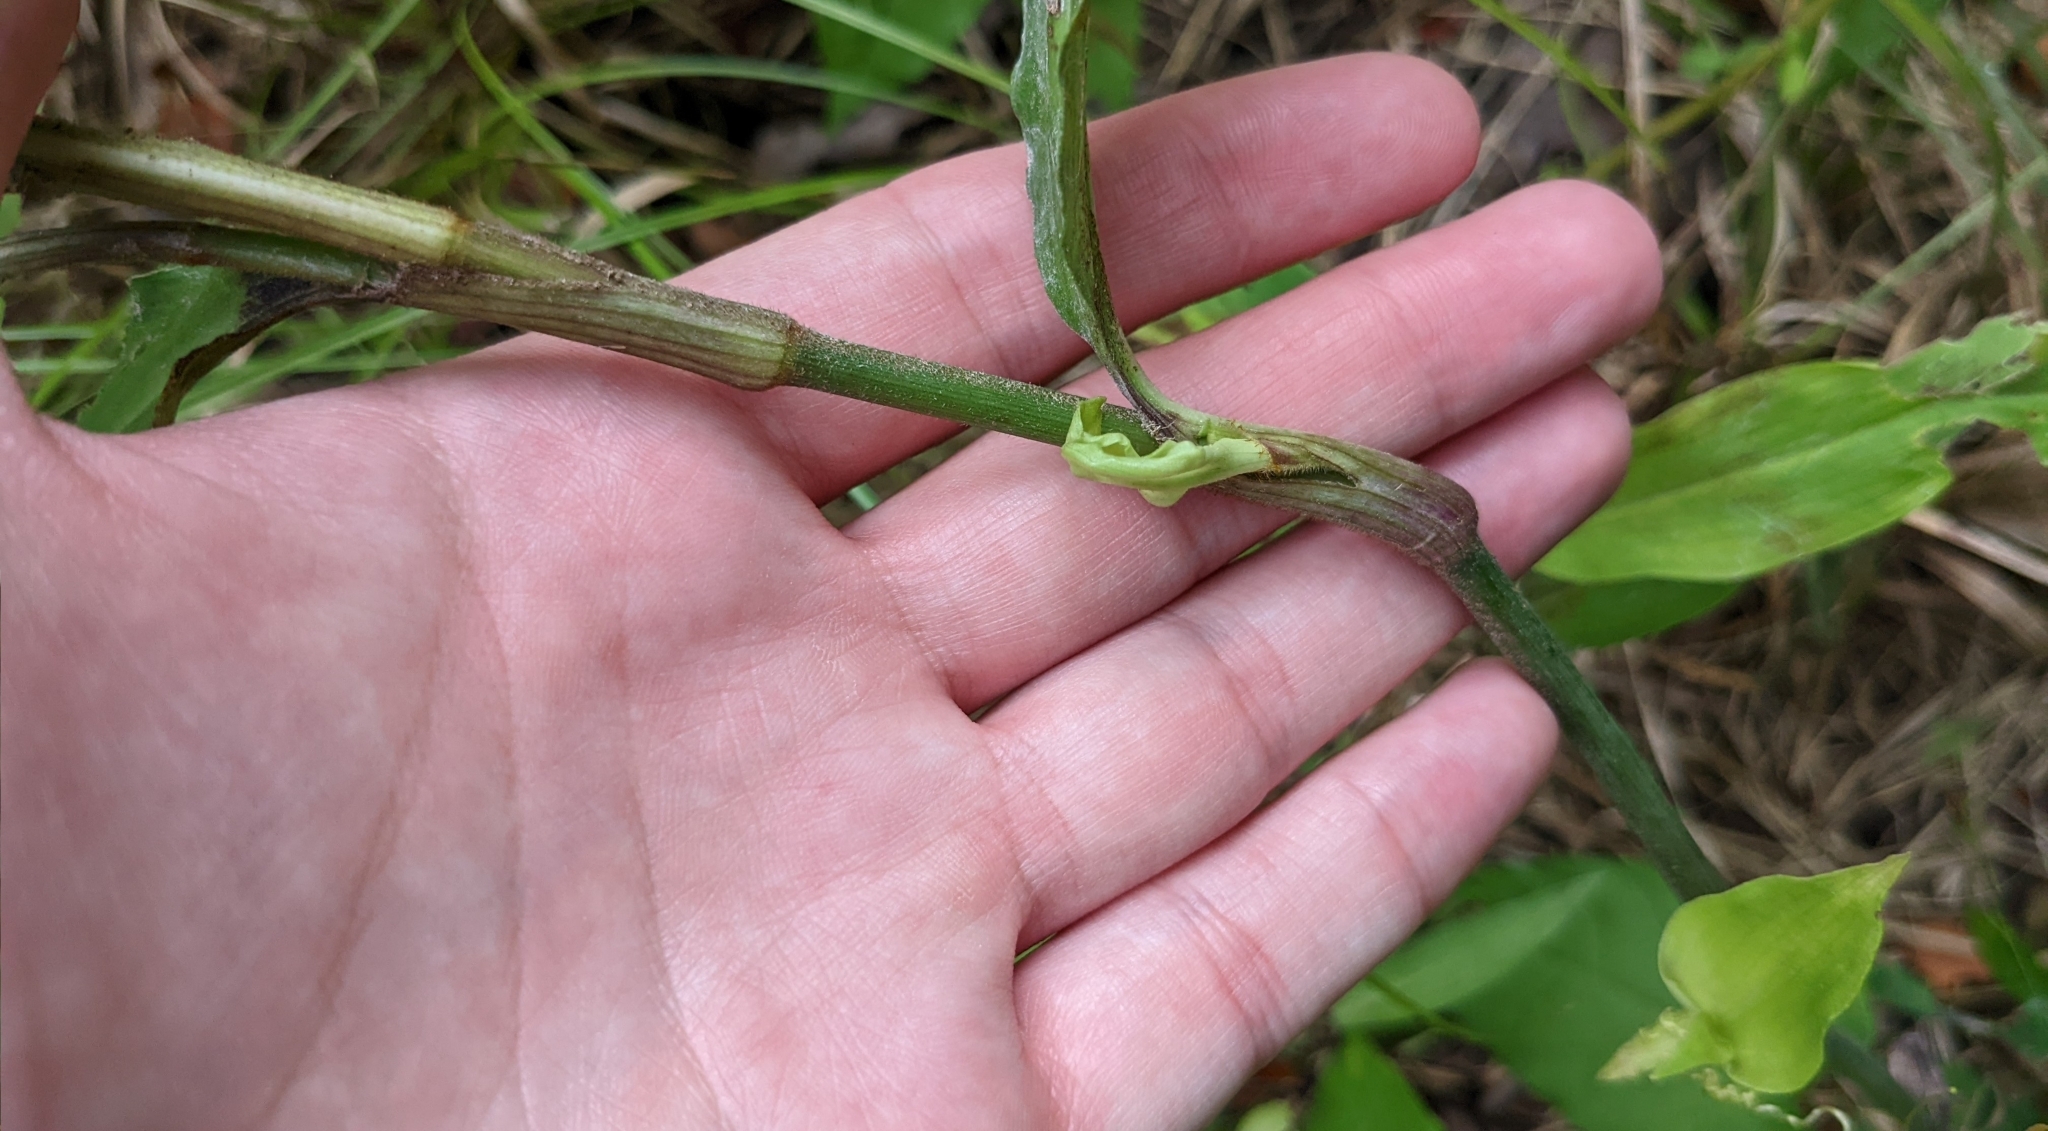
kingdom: Plantae
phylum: Tracheophyta
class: Liliopsida
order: Commelinales
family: Commelinaceae
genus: Commelina
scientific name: Commelina virginica
